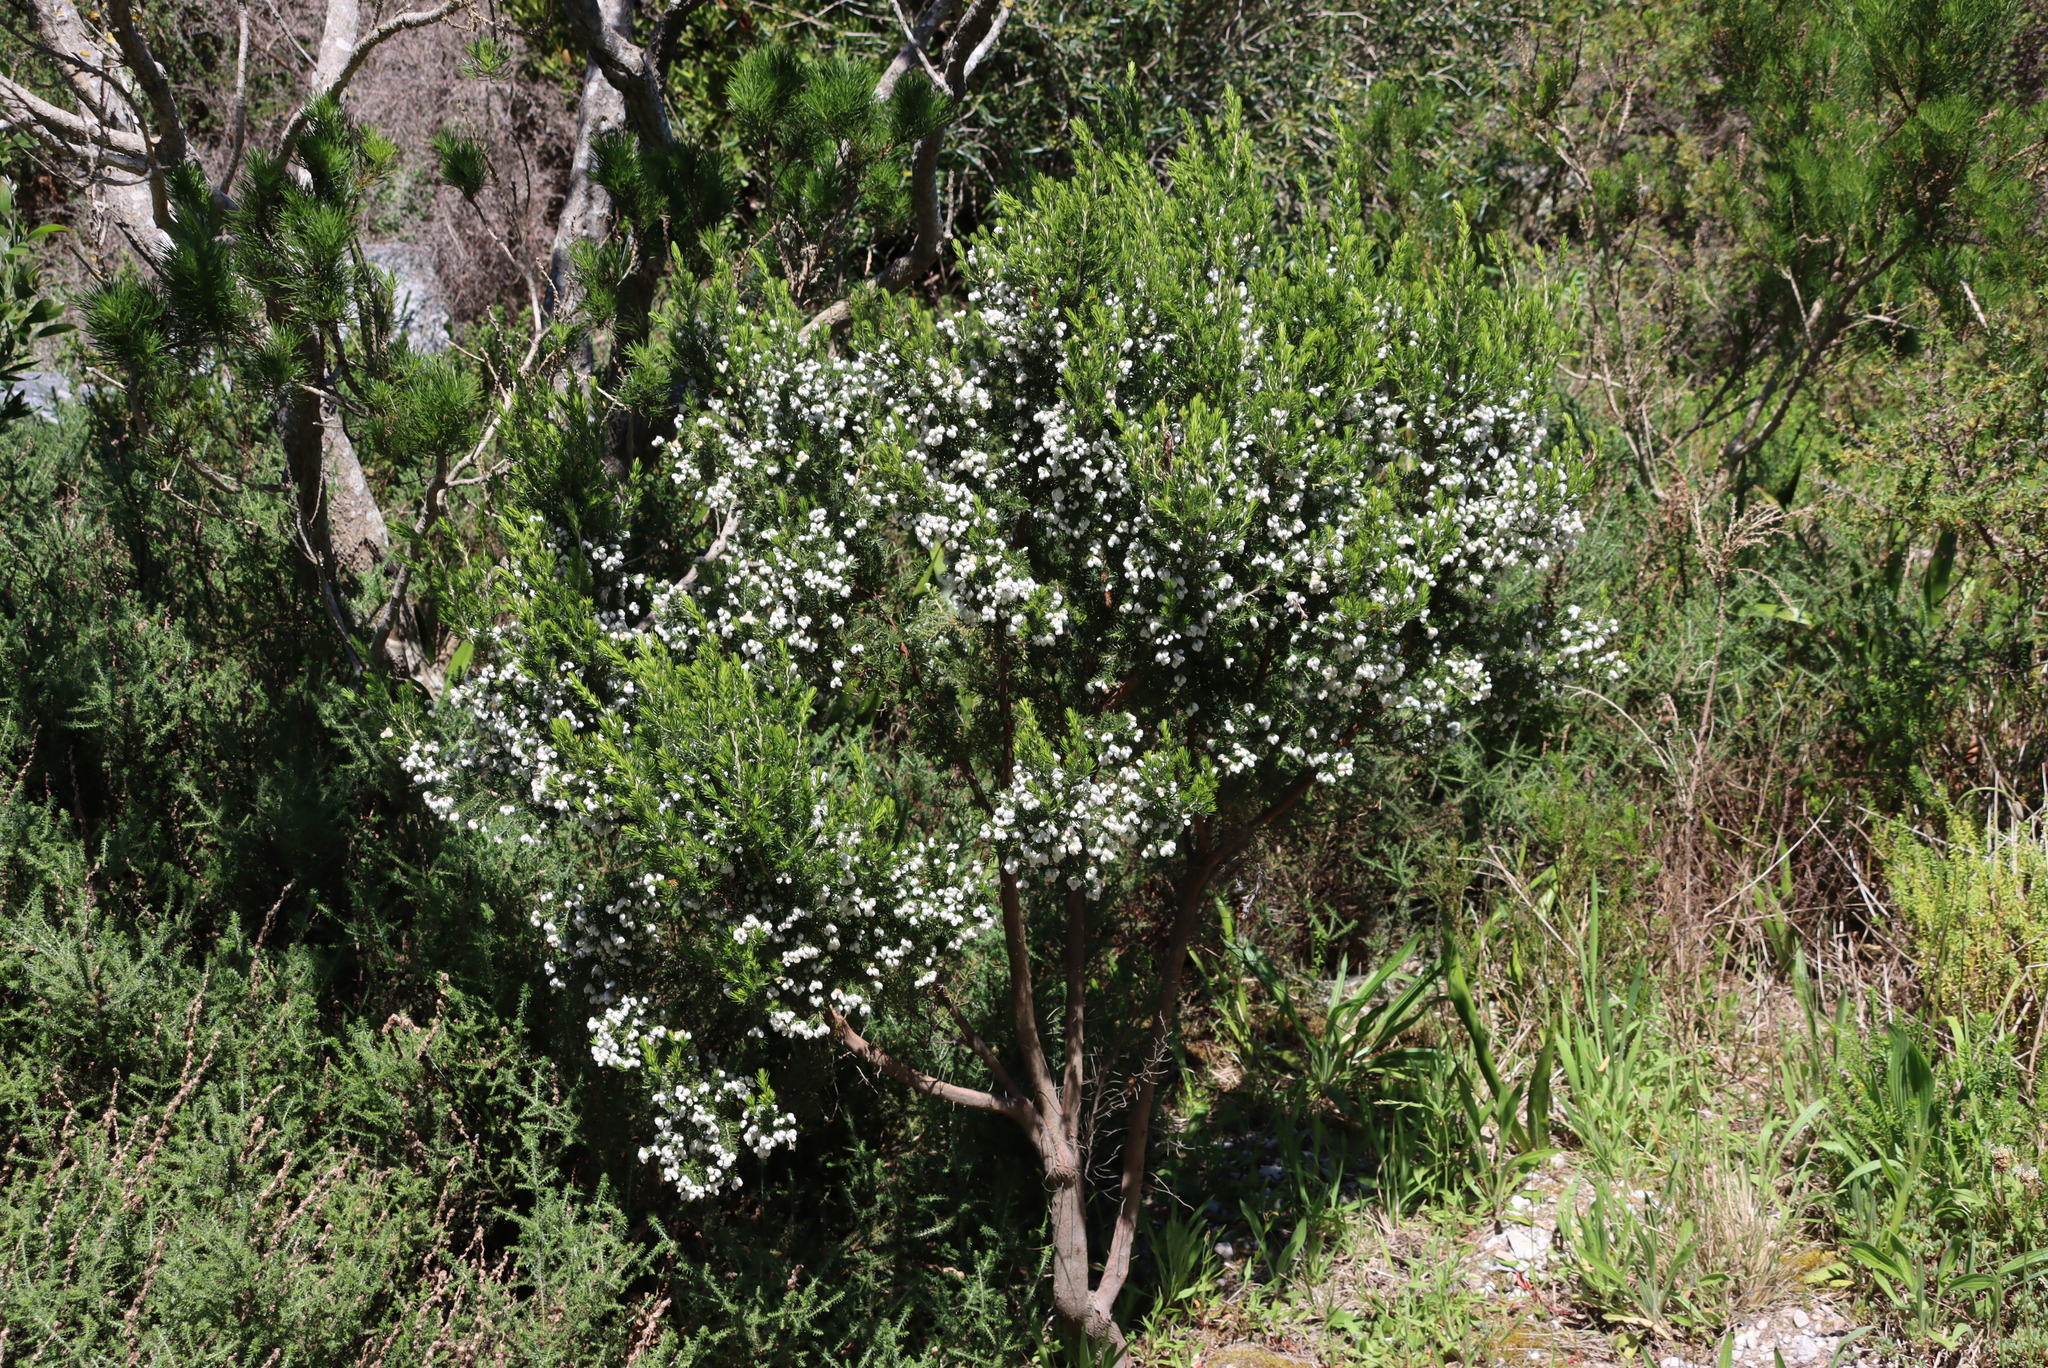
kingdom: Plantae
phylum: Tracheophyta
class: Magnoliopsida
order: Ericales
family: Ericaceae
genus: Erica
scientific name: Erica triflora
